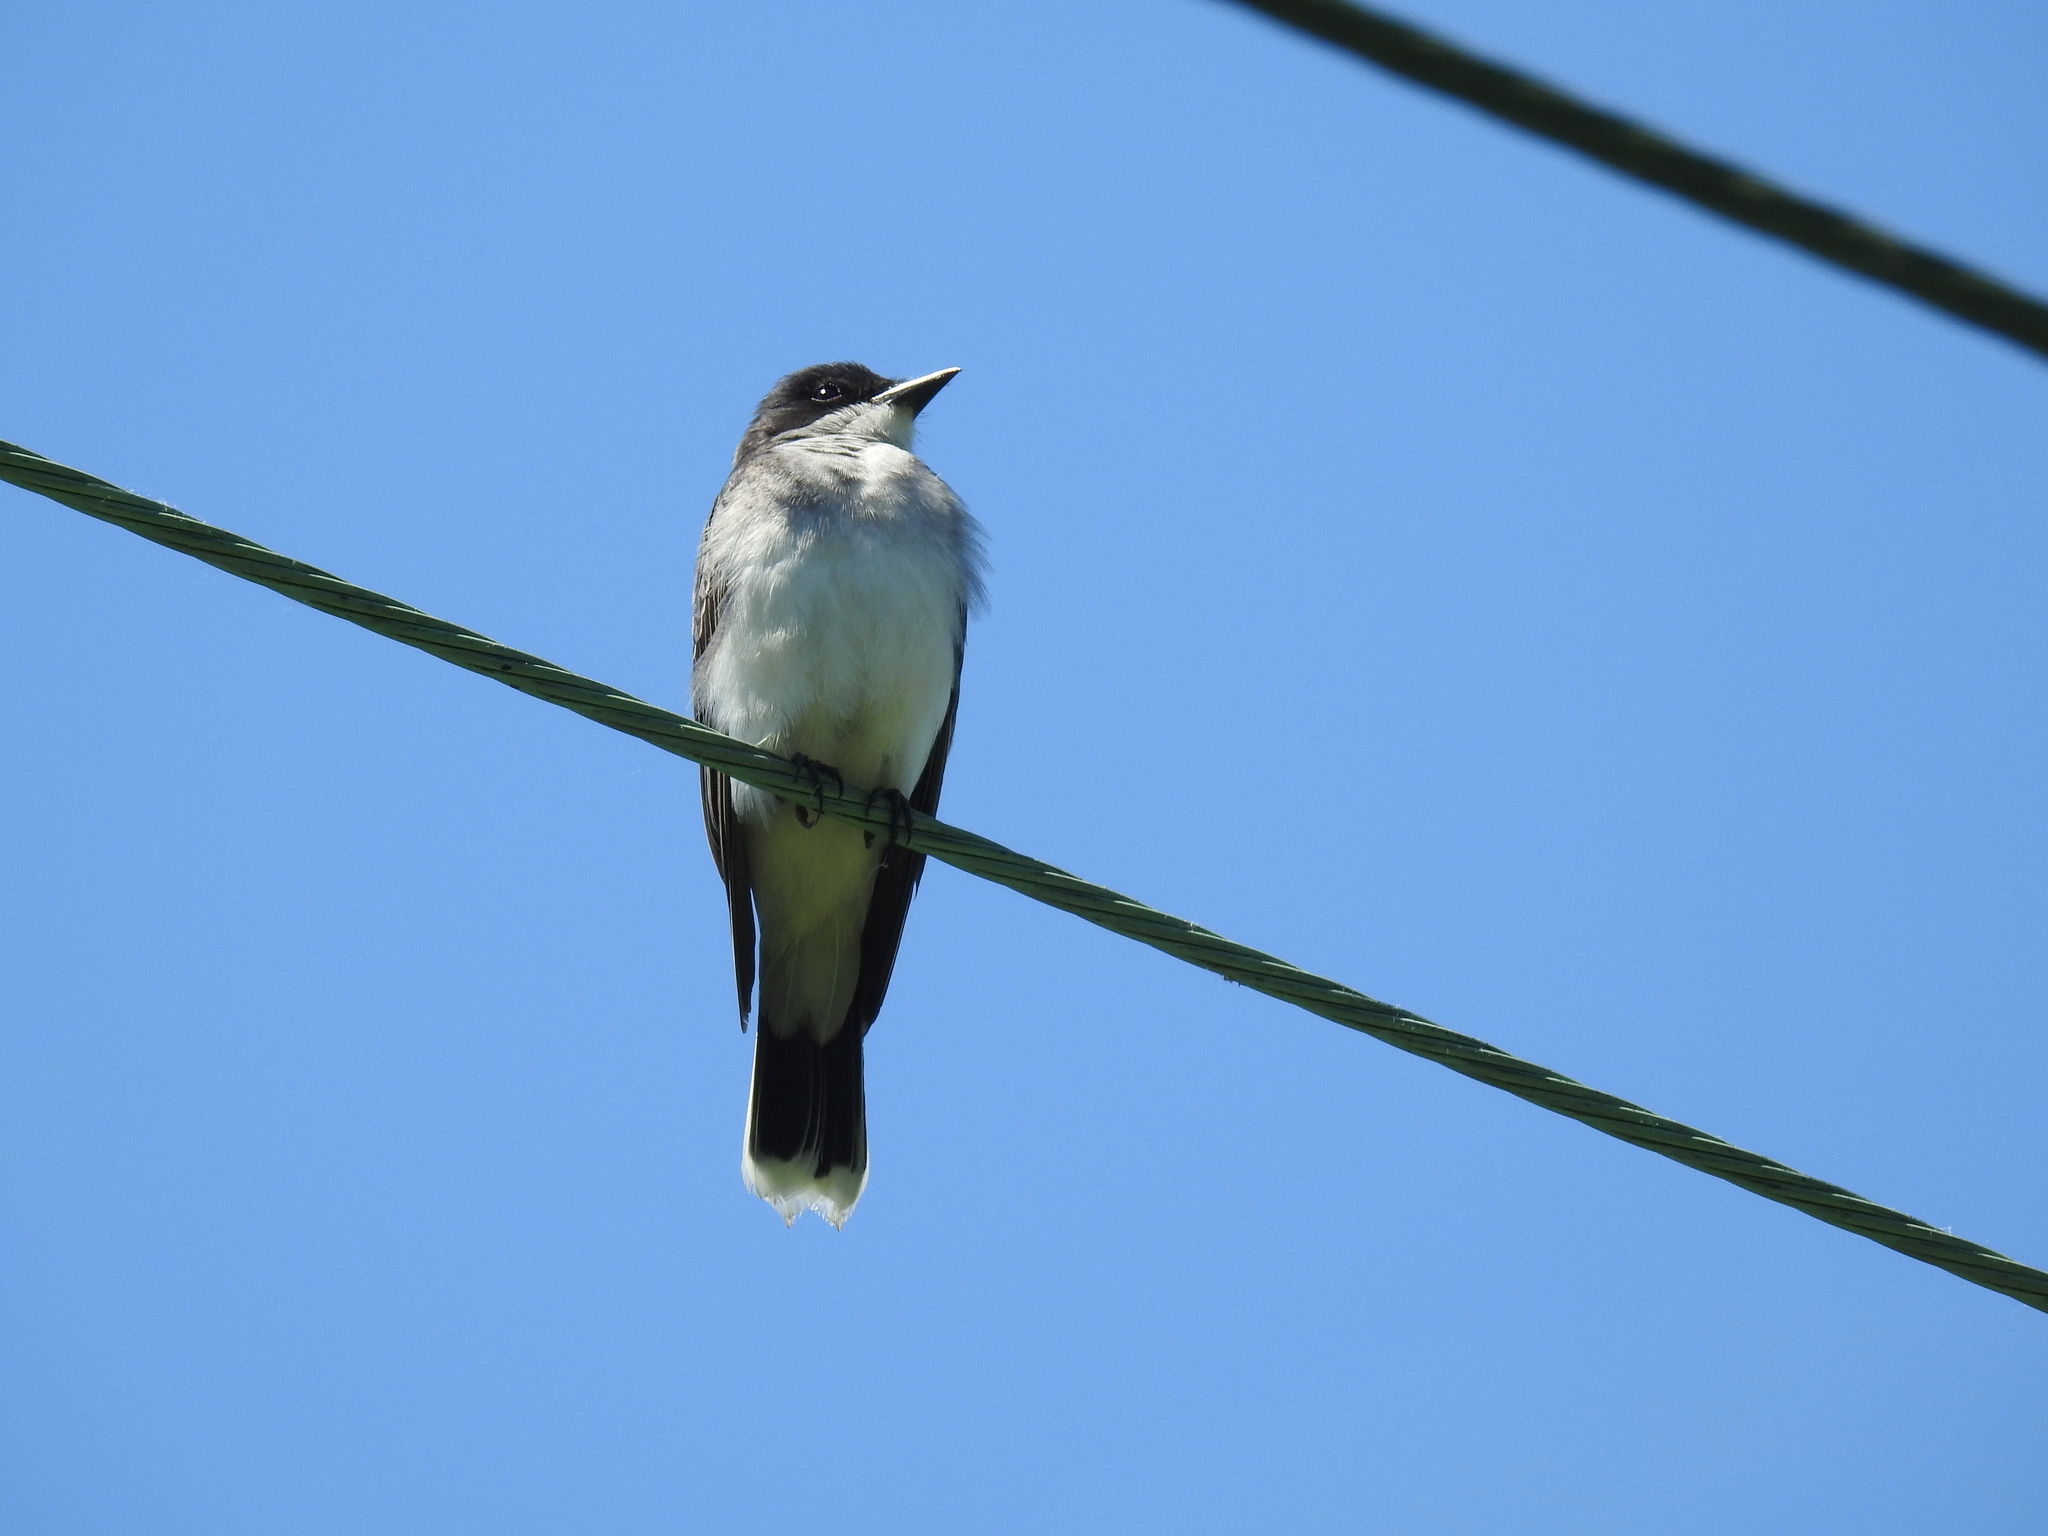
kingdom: Animalia
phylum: Chordata
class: Aves
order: Passeriformes
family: Tyrannidae
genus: Tyrannus
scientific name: Tyrannus tyrannus
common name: Eastern kingbird
